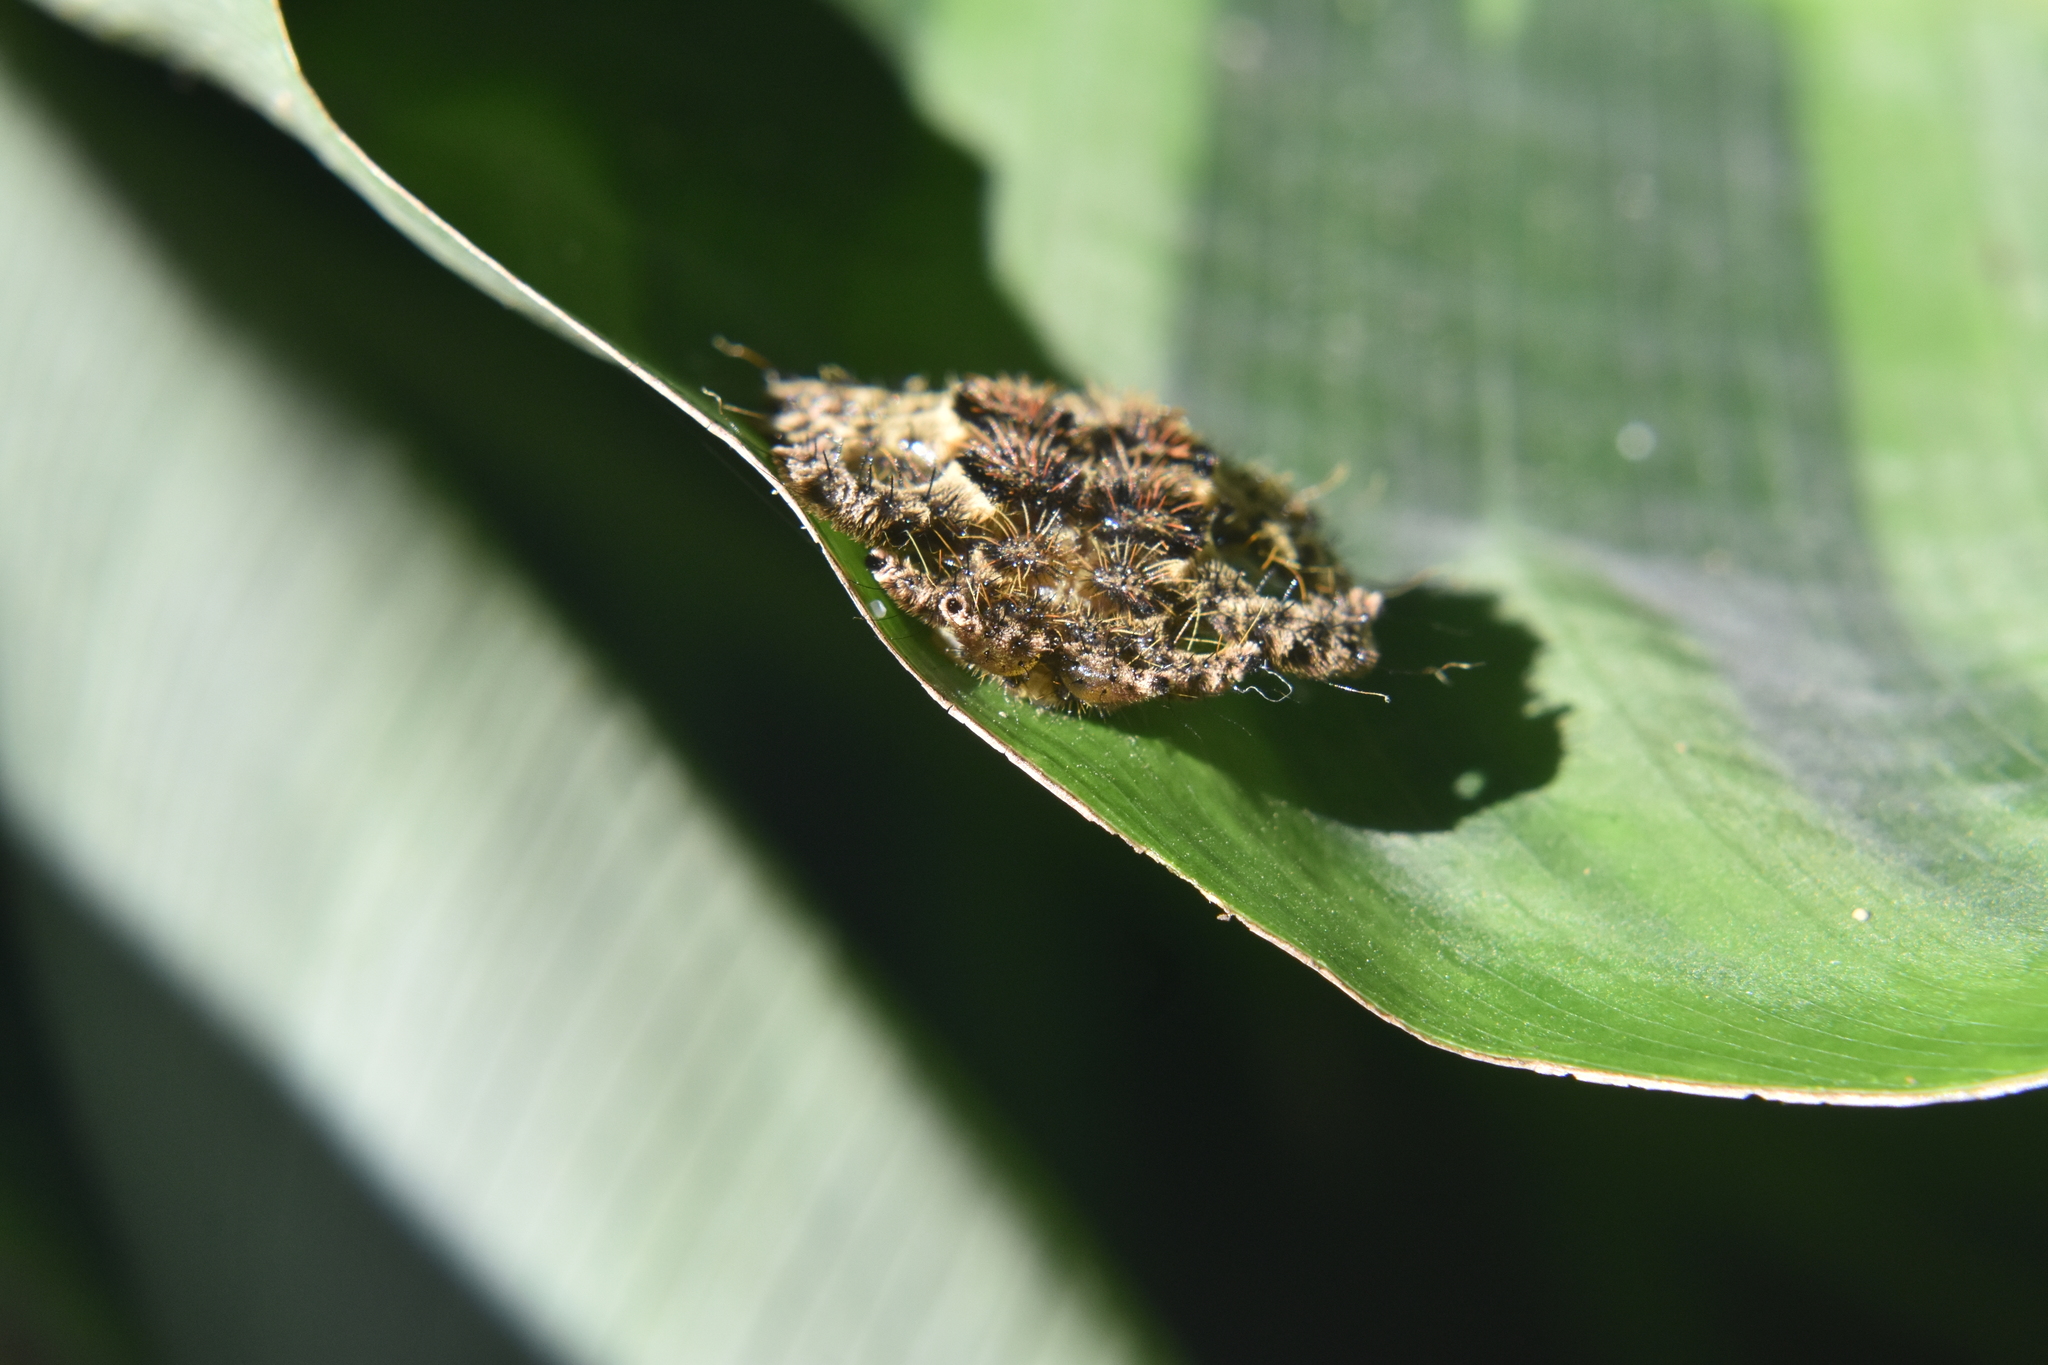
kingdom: Animalia
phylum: Arthropoda
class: Insecta
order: Lepidoptera
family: Limacodidae
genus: Phobetron
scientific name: Phobetron hipparchia
